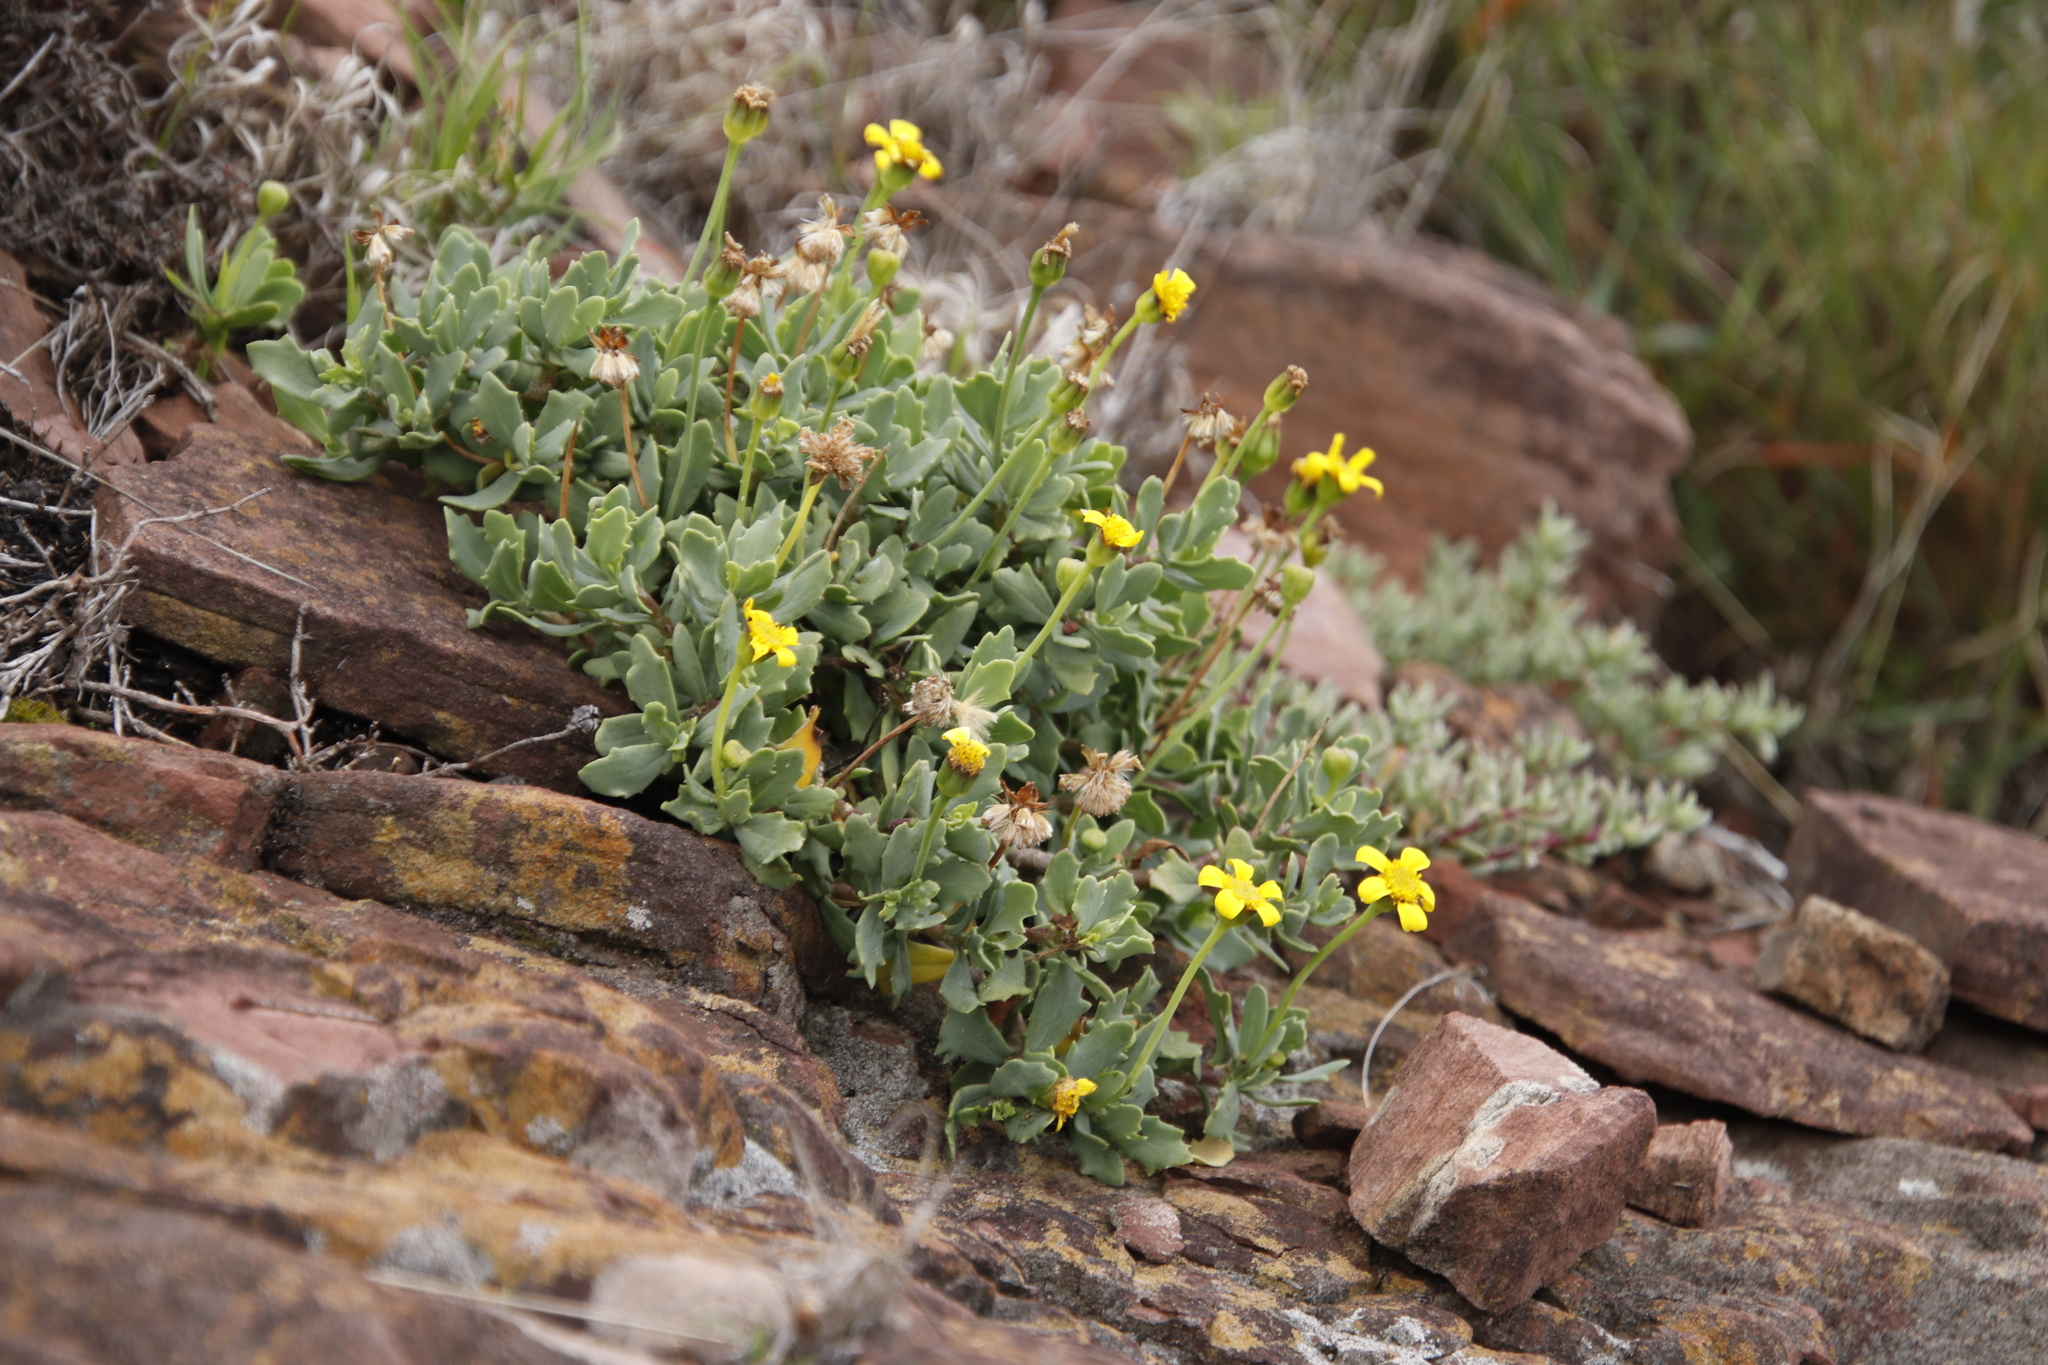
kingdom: Plantae
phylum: Tracheophyta
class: Magnoliopsida
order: Asterales
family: Asteraceae
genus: Othonna
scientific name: Othonna arborescens
